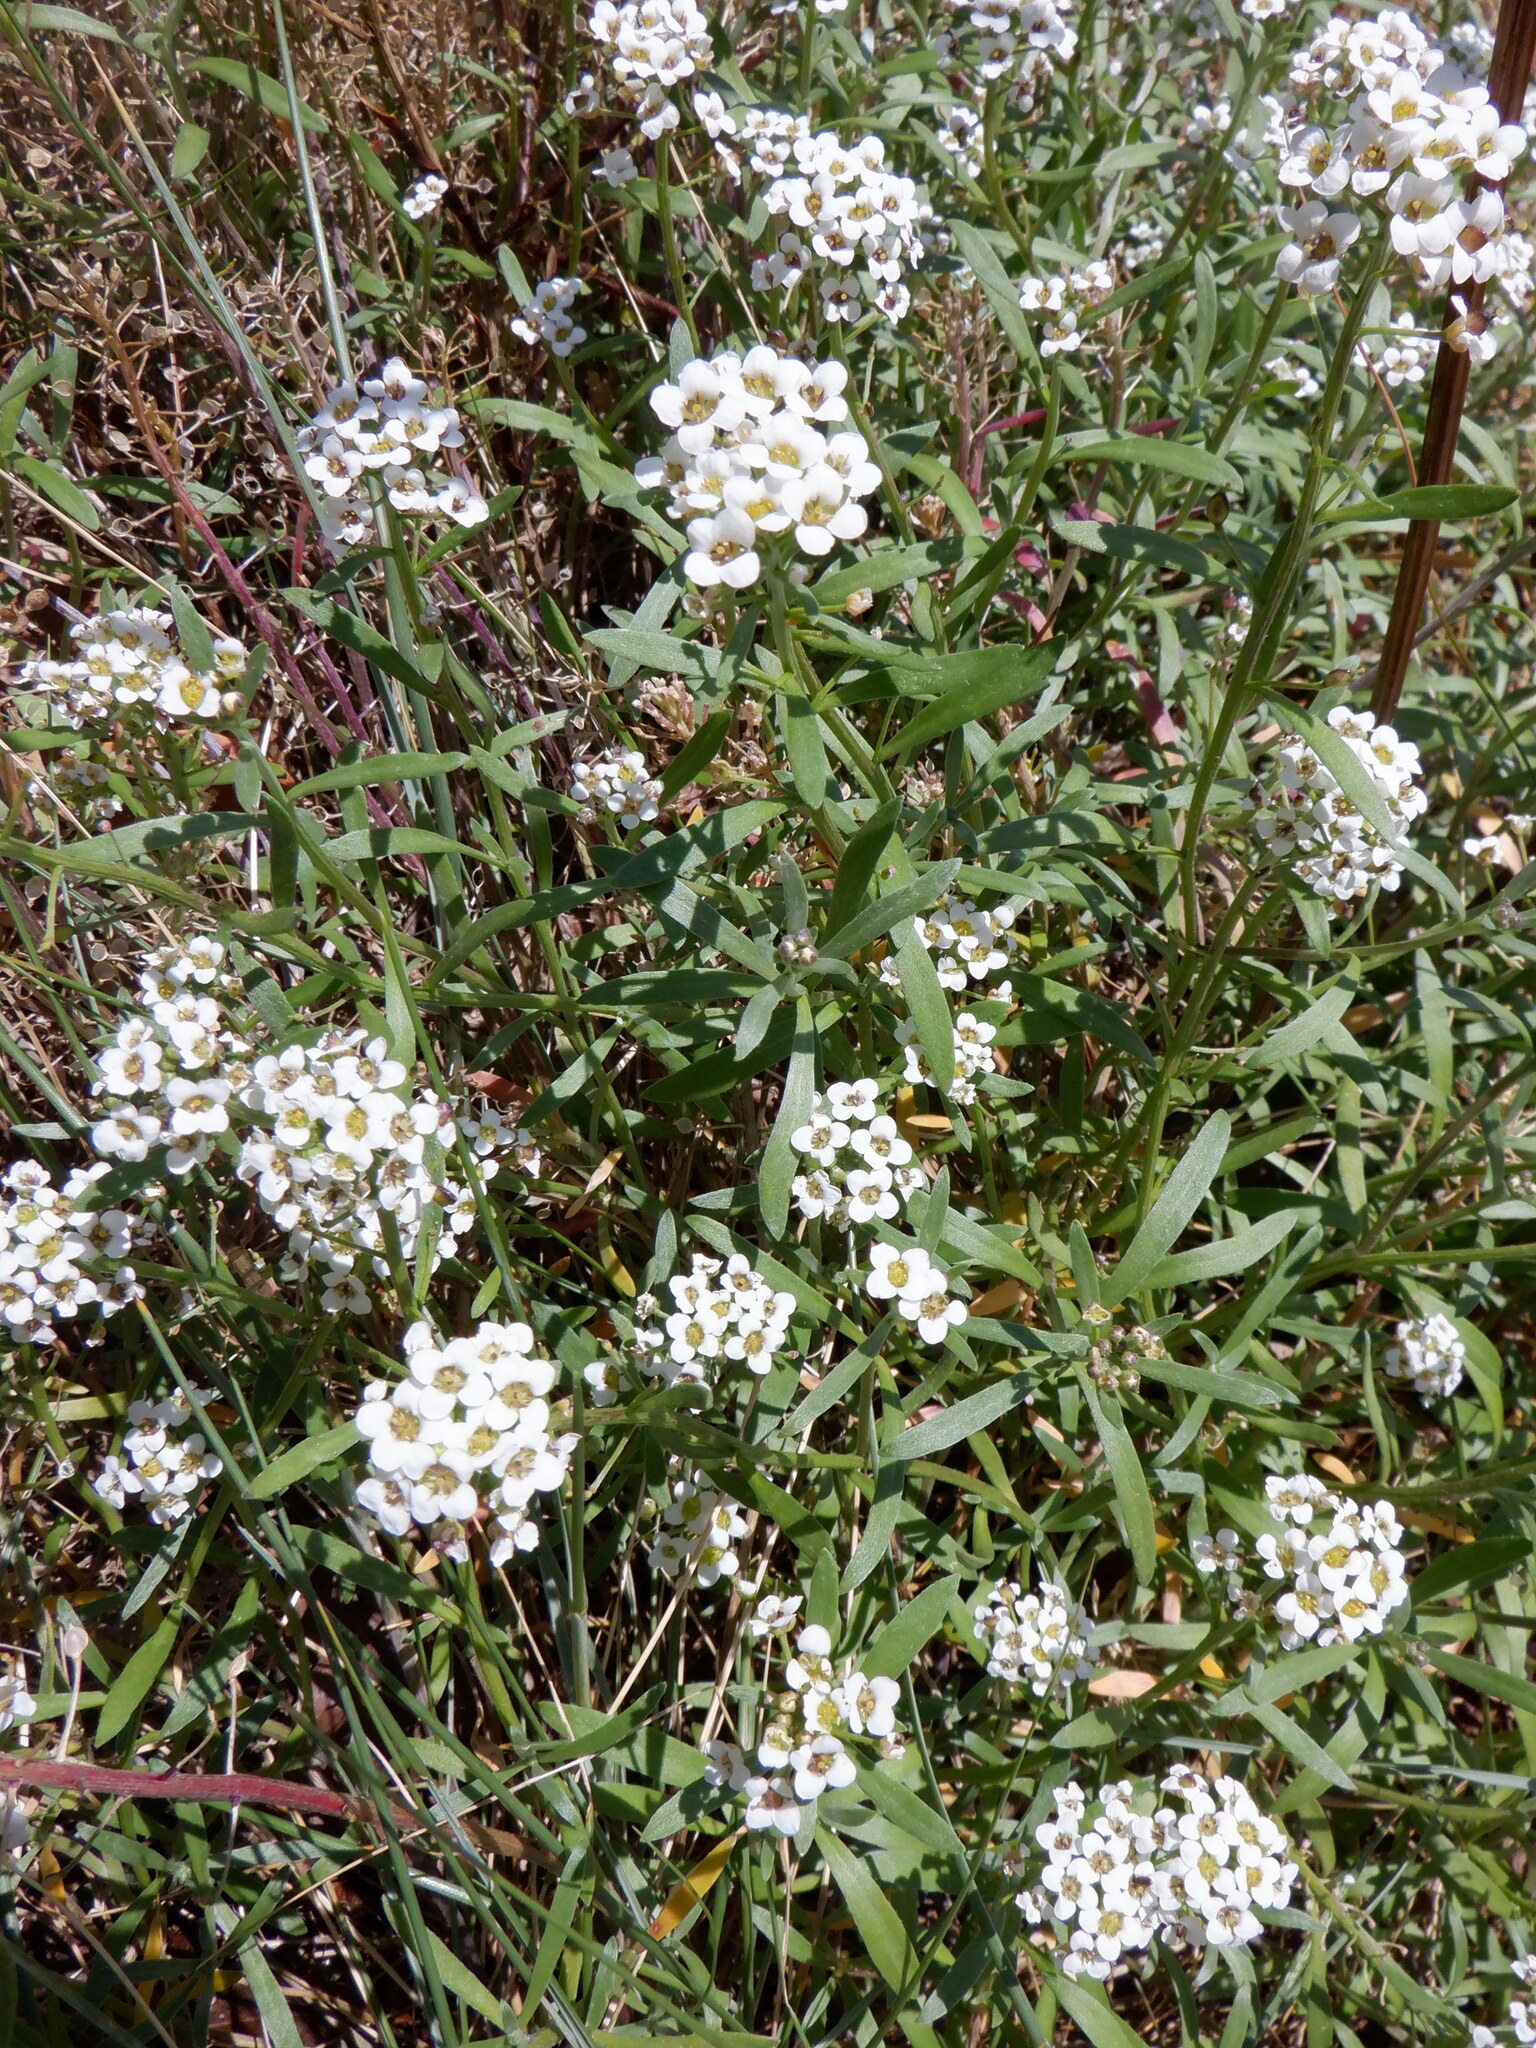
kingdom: Plantae
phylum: Tracheophyta
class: Magnoliopsida
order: Brassicales
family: Brassicaceae
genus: Lobularia
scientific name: Lobularia maritima
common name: Sweet alison
